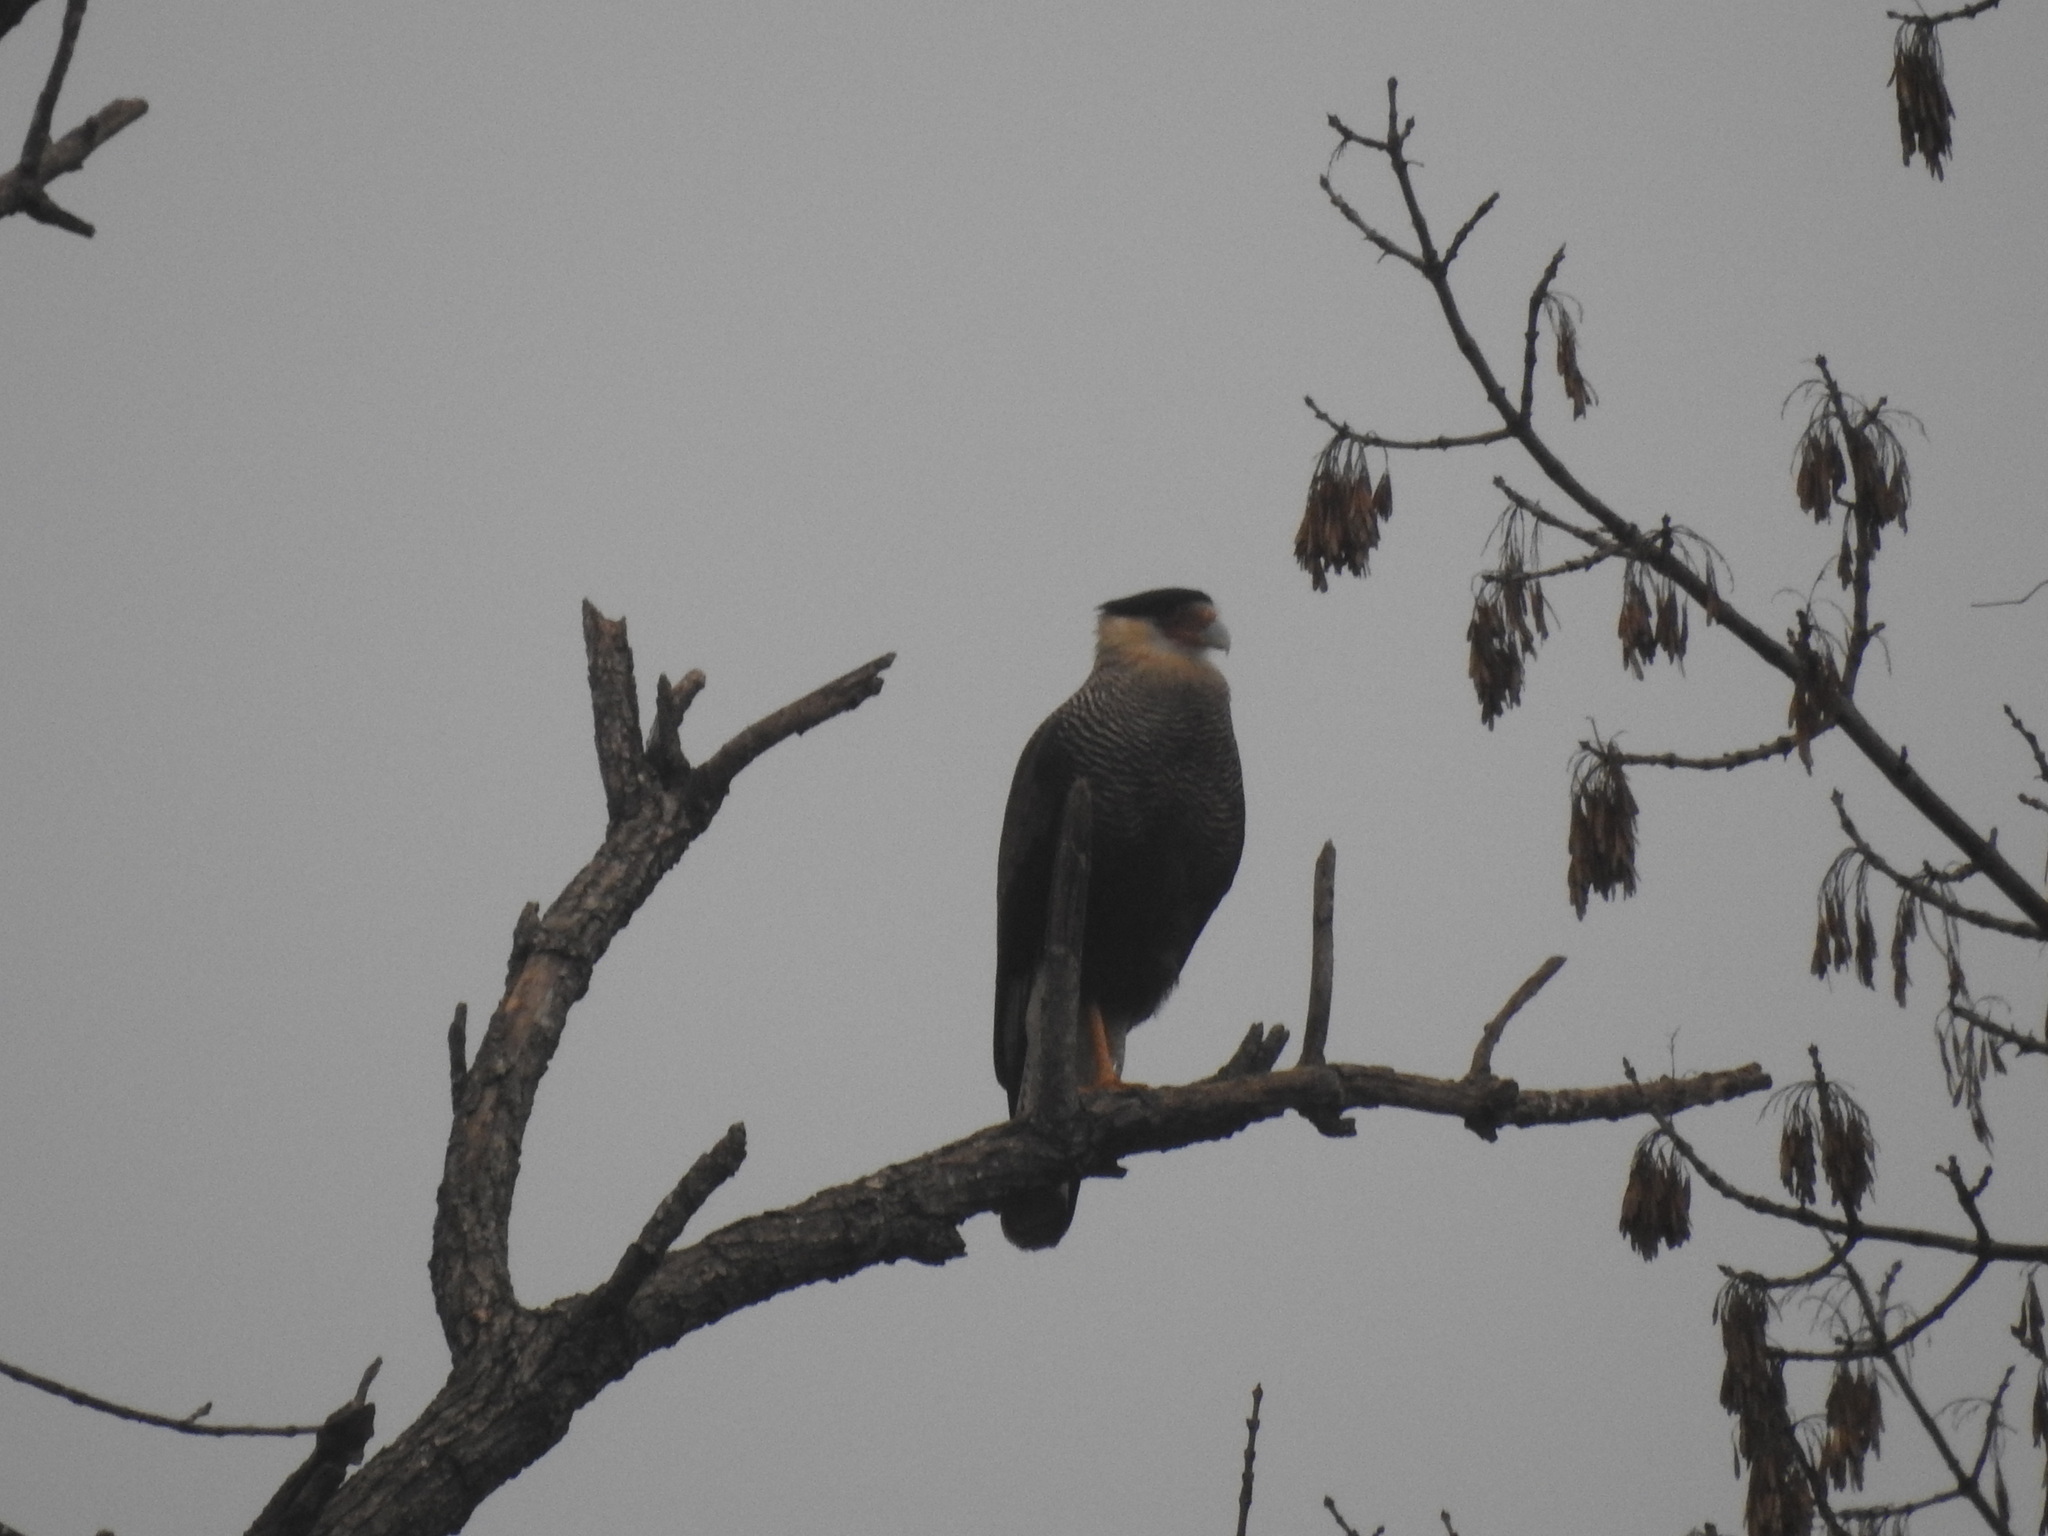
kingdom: Animalia
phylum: Chordata
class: Aves
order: Falconiformes
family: Falconidae
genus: Caracara
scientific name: Caracara plancus
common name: Southern caracara
